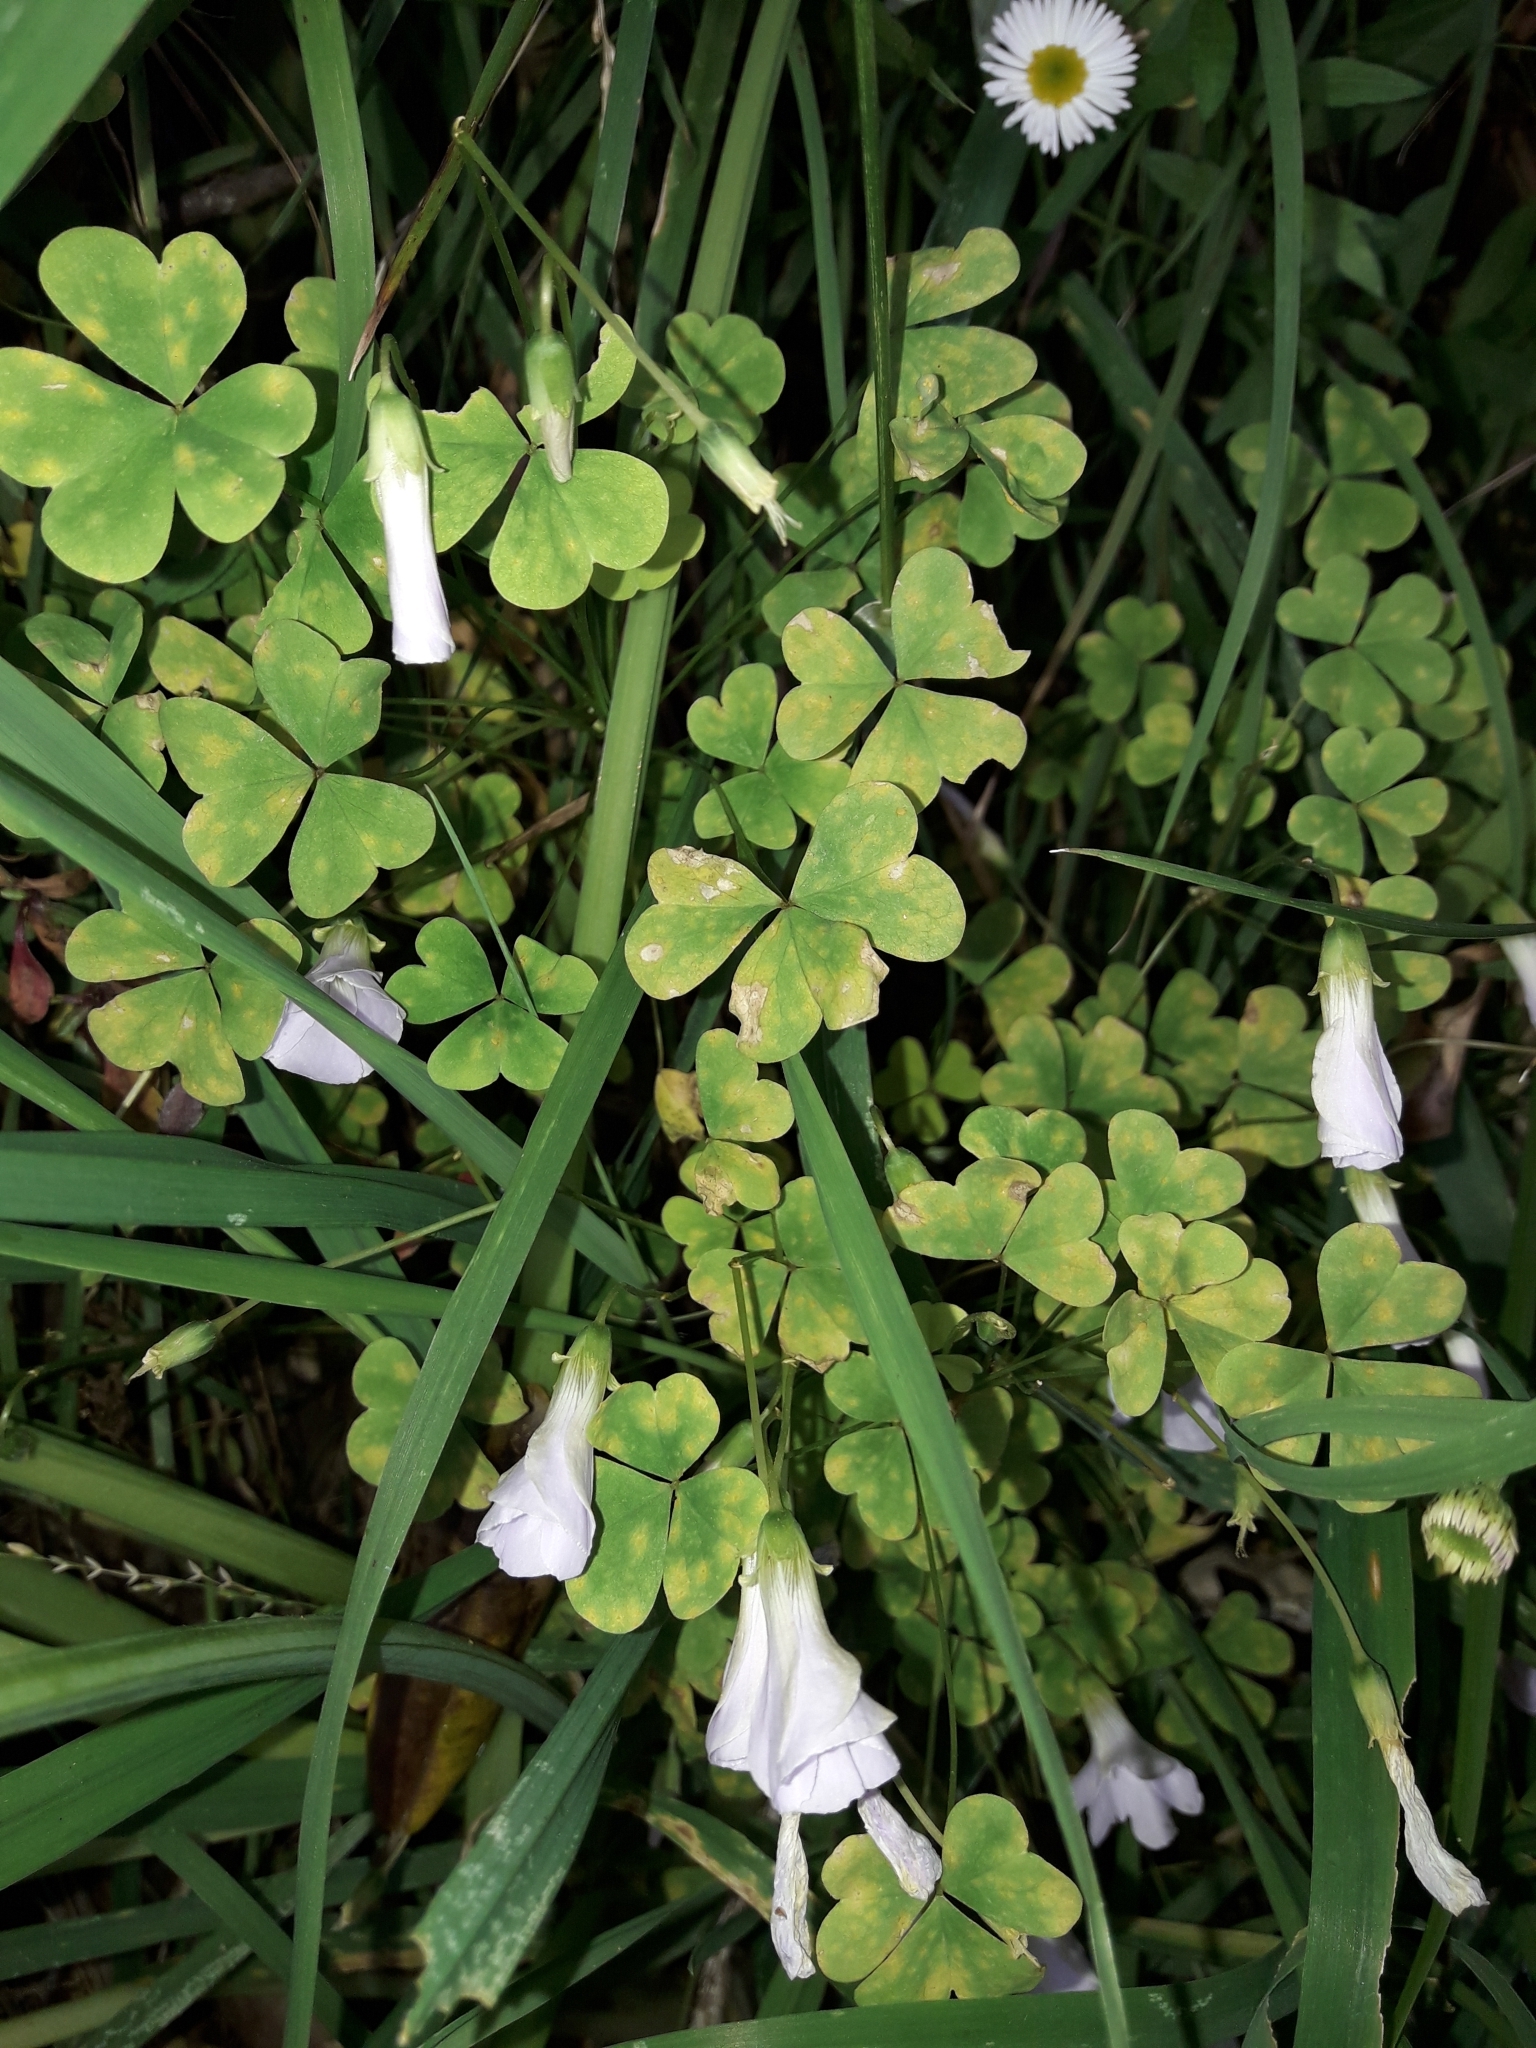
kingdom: Plantae
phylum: Tracheophyta
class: Magnoliopsida
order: Oxalidales
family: Oxalidaceae
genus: Oxalis
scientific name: Oxalis incarnata
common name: Pale pink-sorrel
